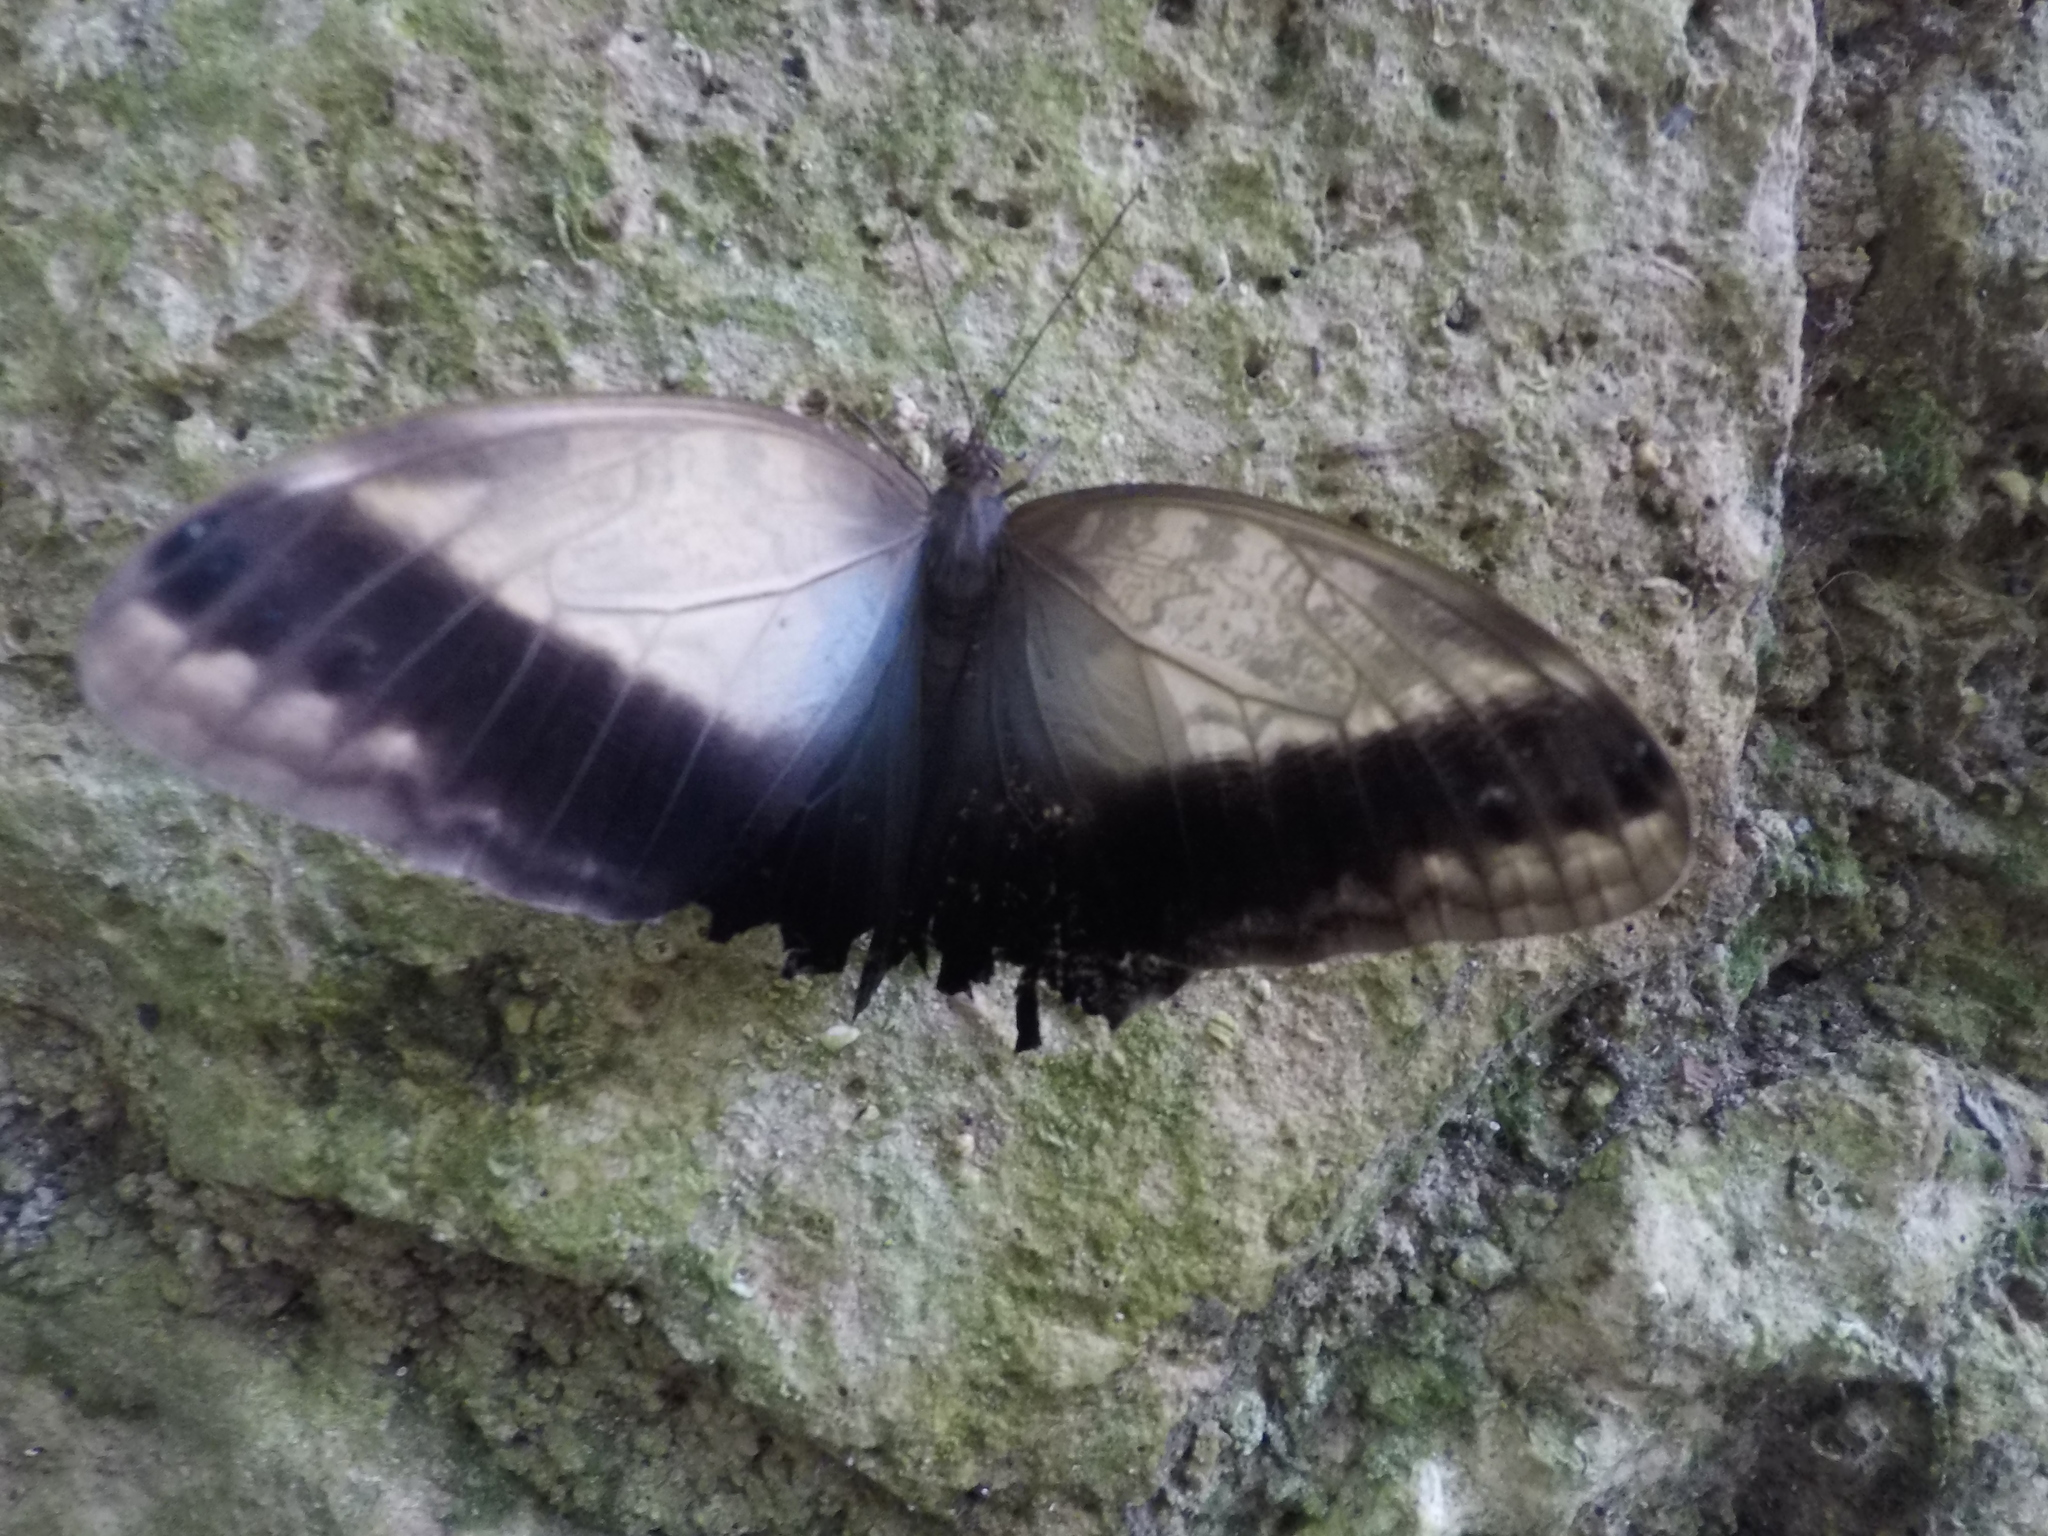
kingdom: Animalia
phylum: Arthropoda
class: Insecta
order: Lepidoptera
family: Nymphalidae
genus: Caligo
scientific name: Caligo telamonius
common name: Pale owl-butterfly
